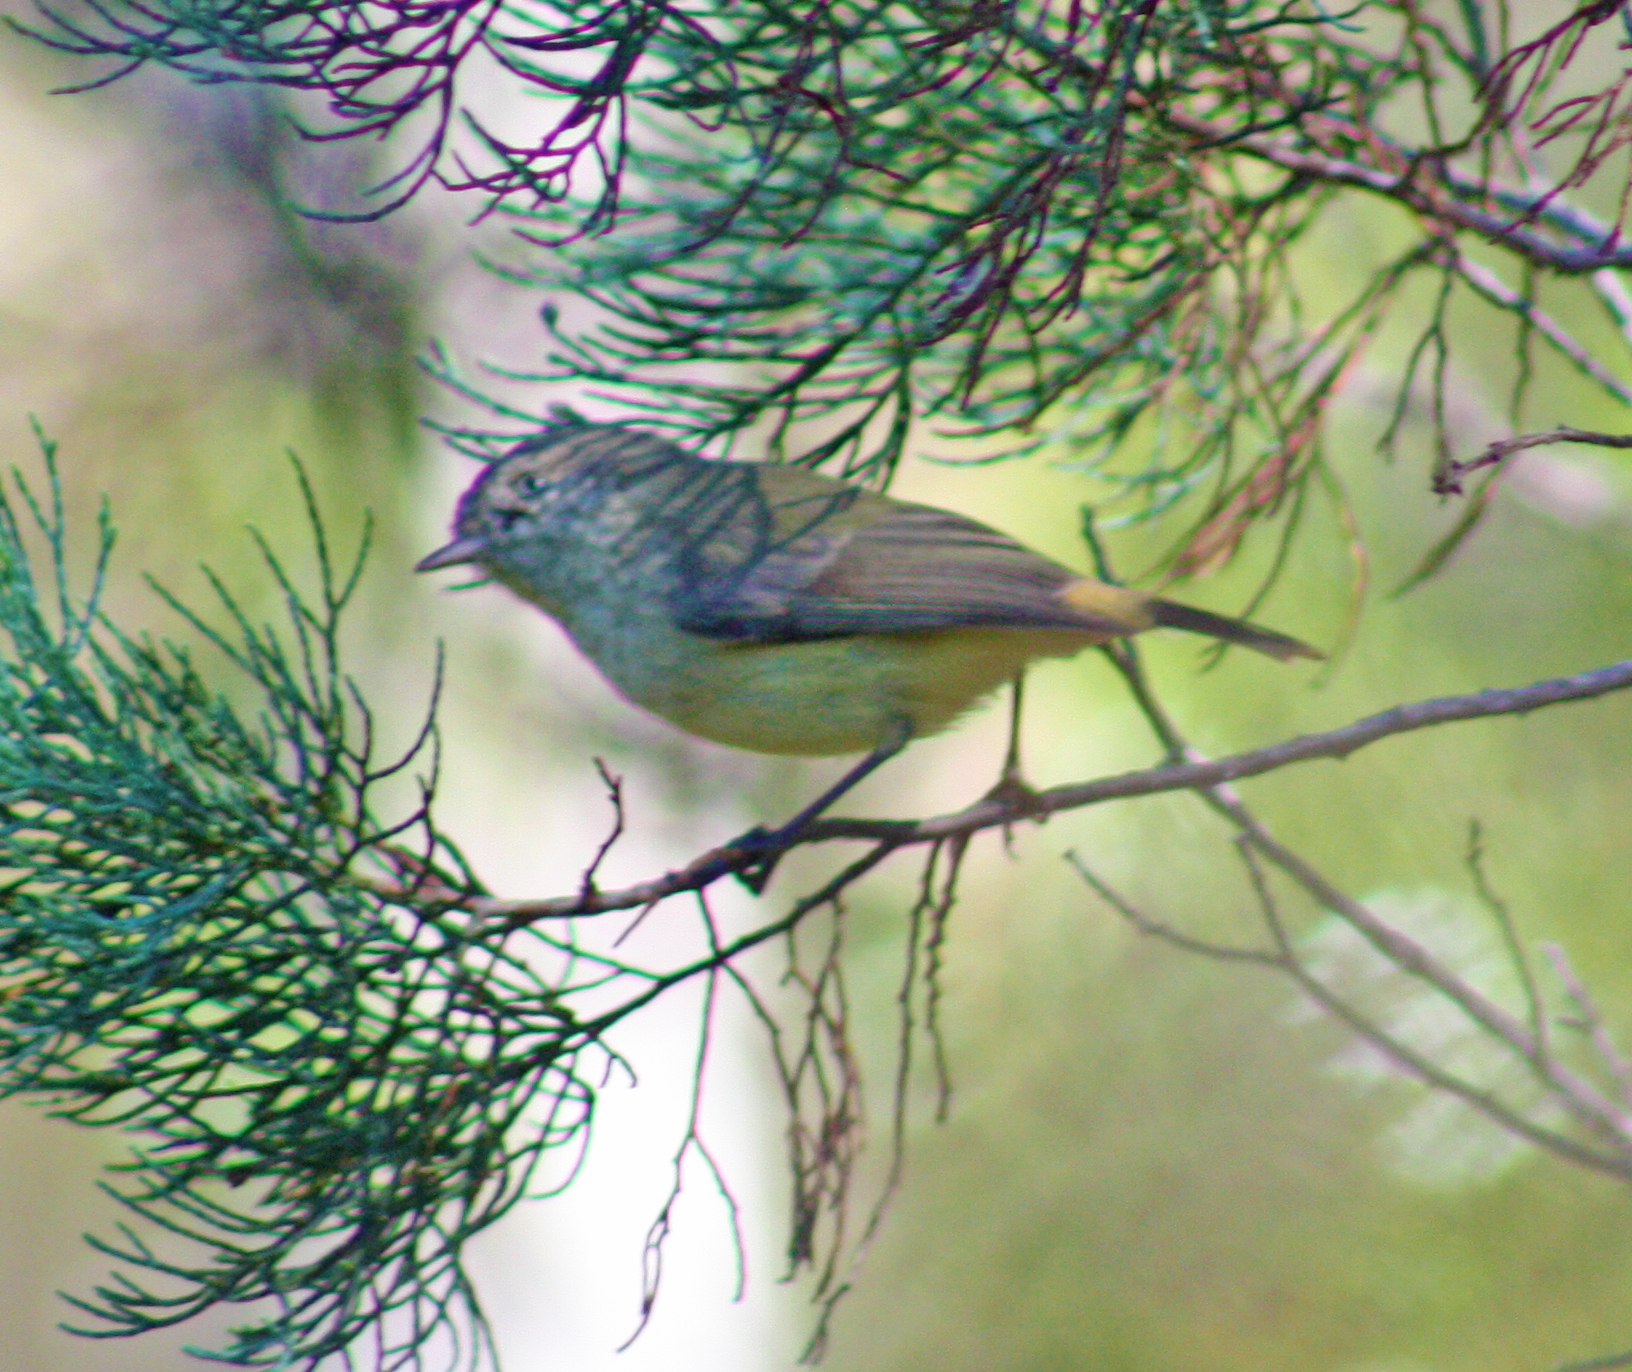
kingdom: Animalia
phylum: Chordata
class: Aves
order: Passeriformes
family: Acanthizidae
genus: Acanthiza
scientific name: Acanthiza reguloides
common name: Buff-rumped thornbill
